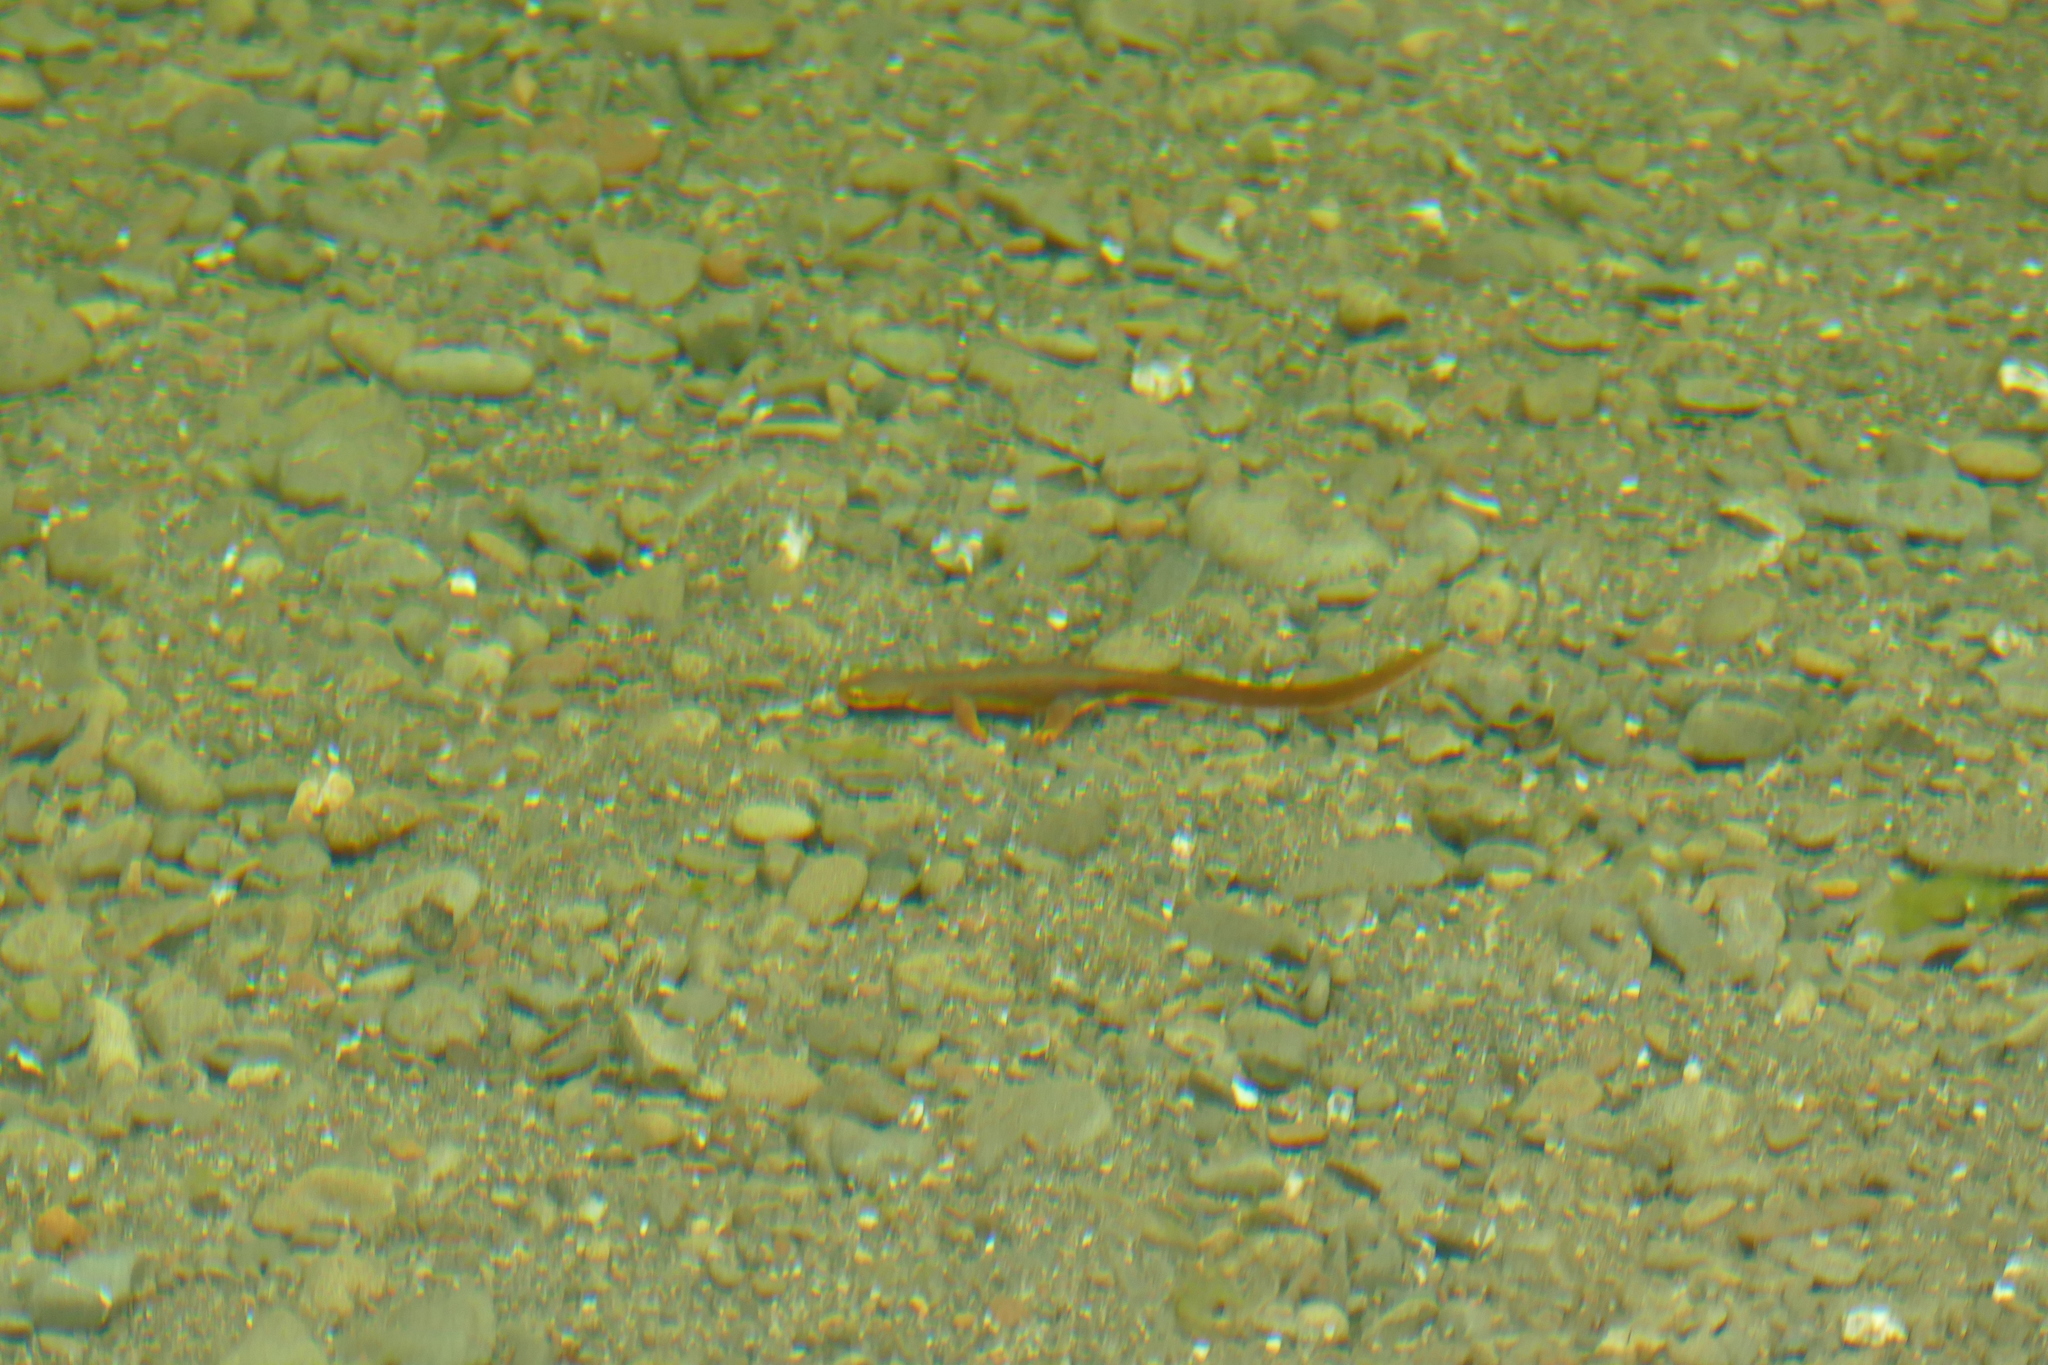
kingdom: Animalia
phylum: Chordata
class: Amphibia
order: Caudata
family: Salamandridae
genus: Taricha
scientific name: Taricha torosa
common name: California newt
